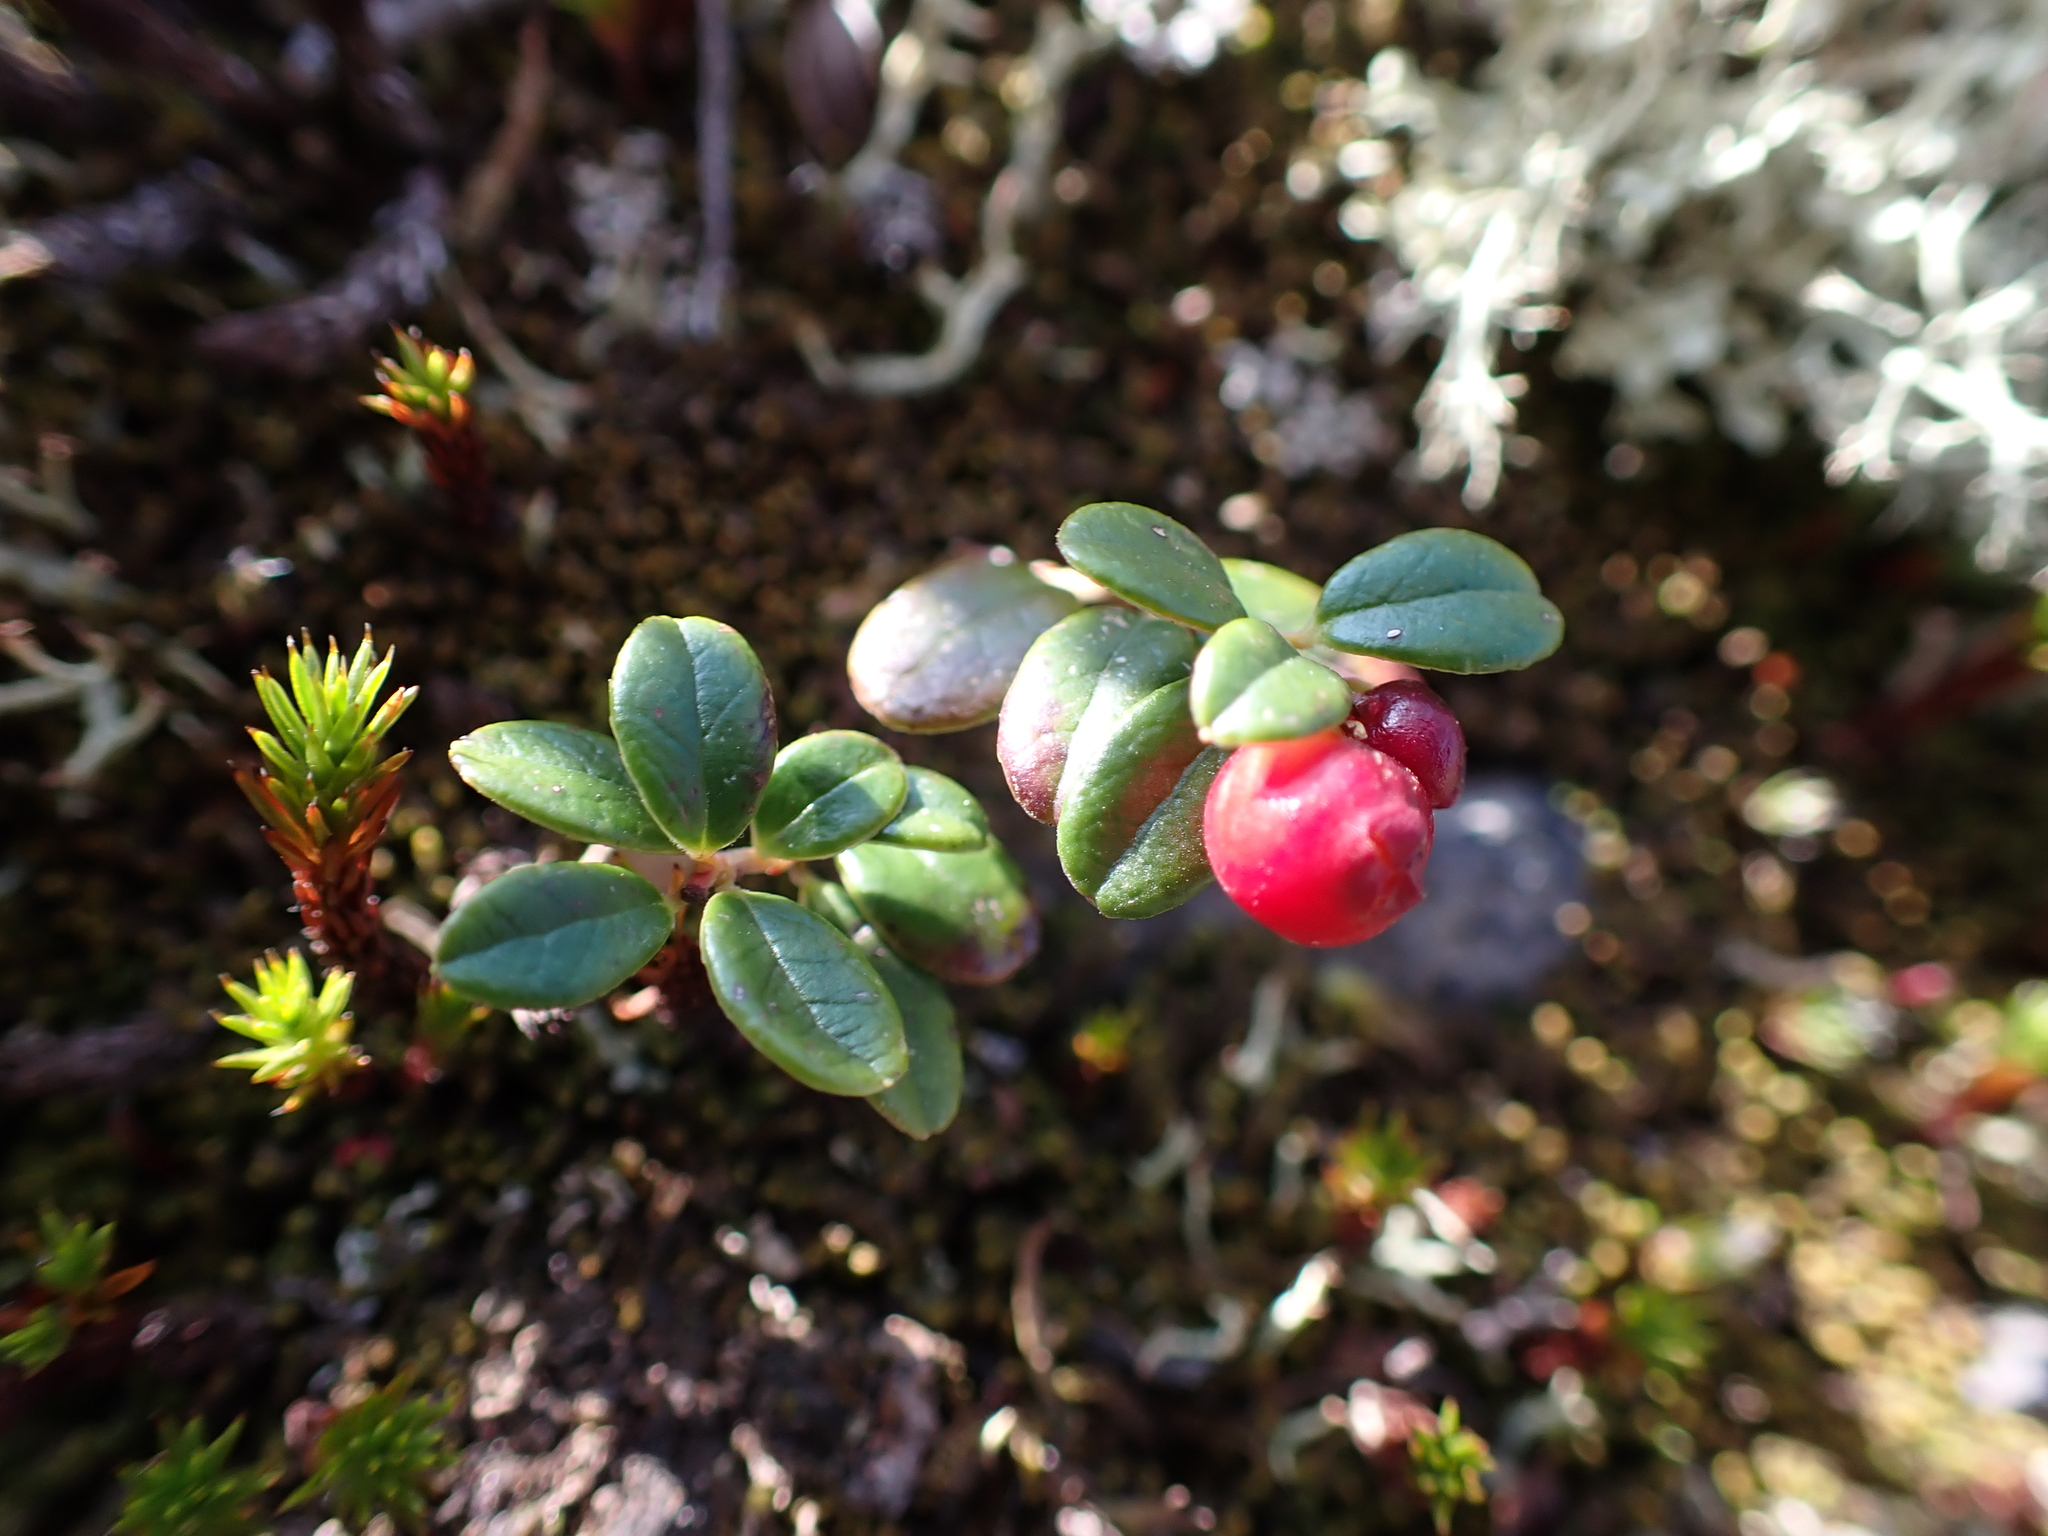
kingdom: Plantae
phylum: Tracheophyta
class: Magnoliopsida
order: Ericales
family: Ericaceae
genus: Vaccinium
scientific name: Vaccinium vitis-idaea
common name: Cowberry
